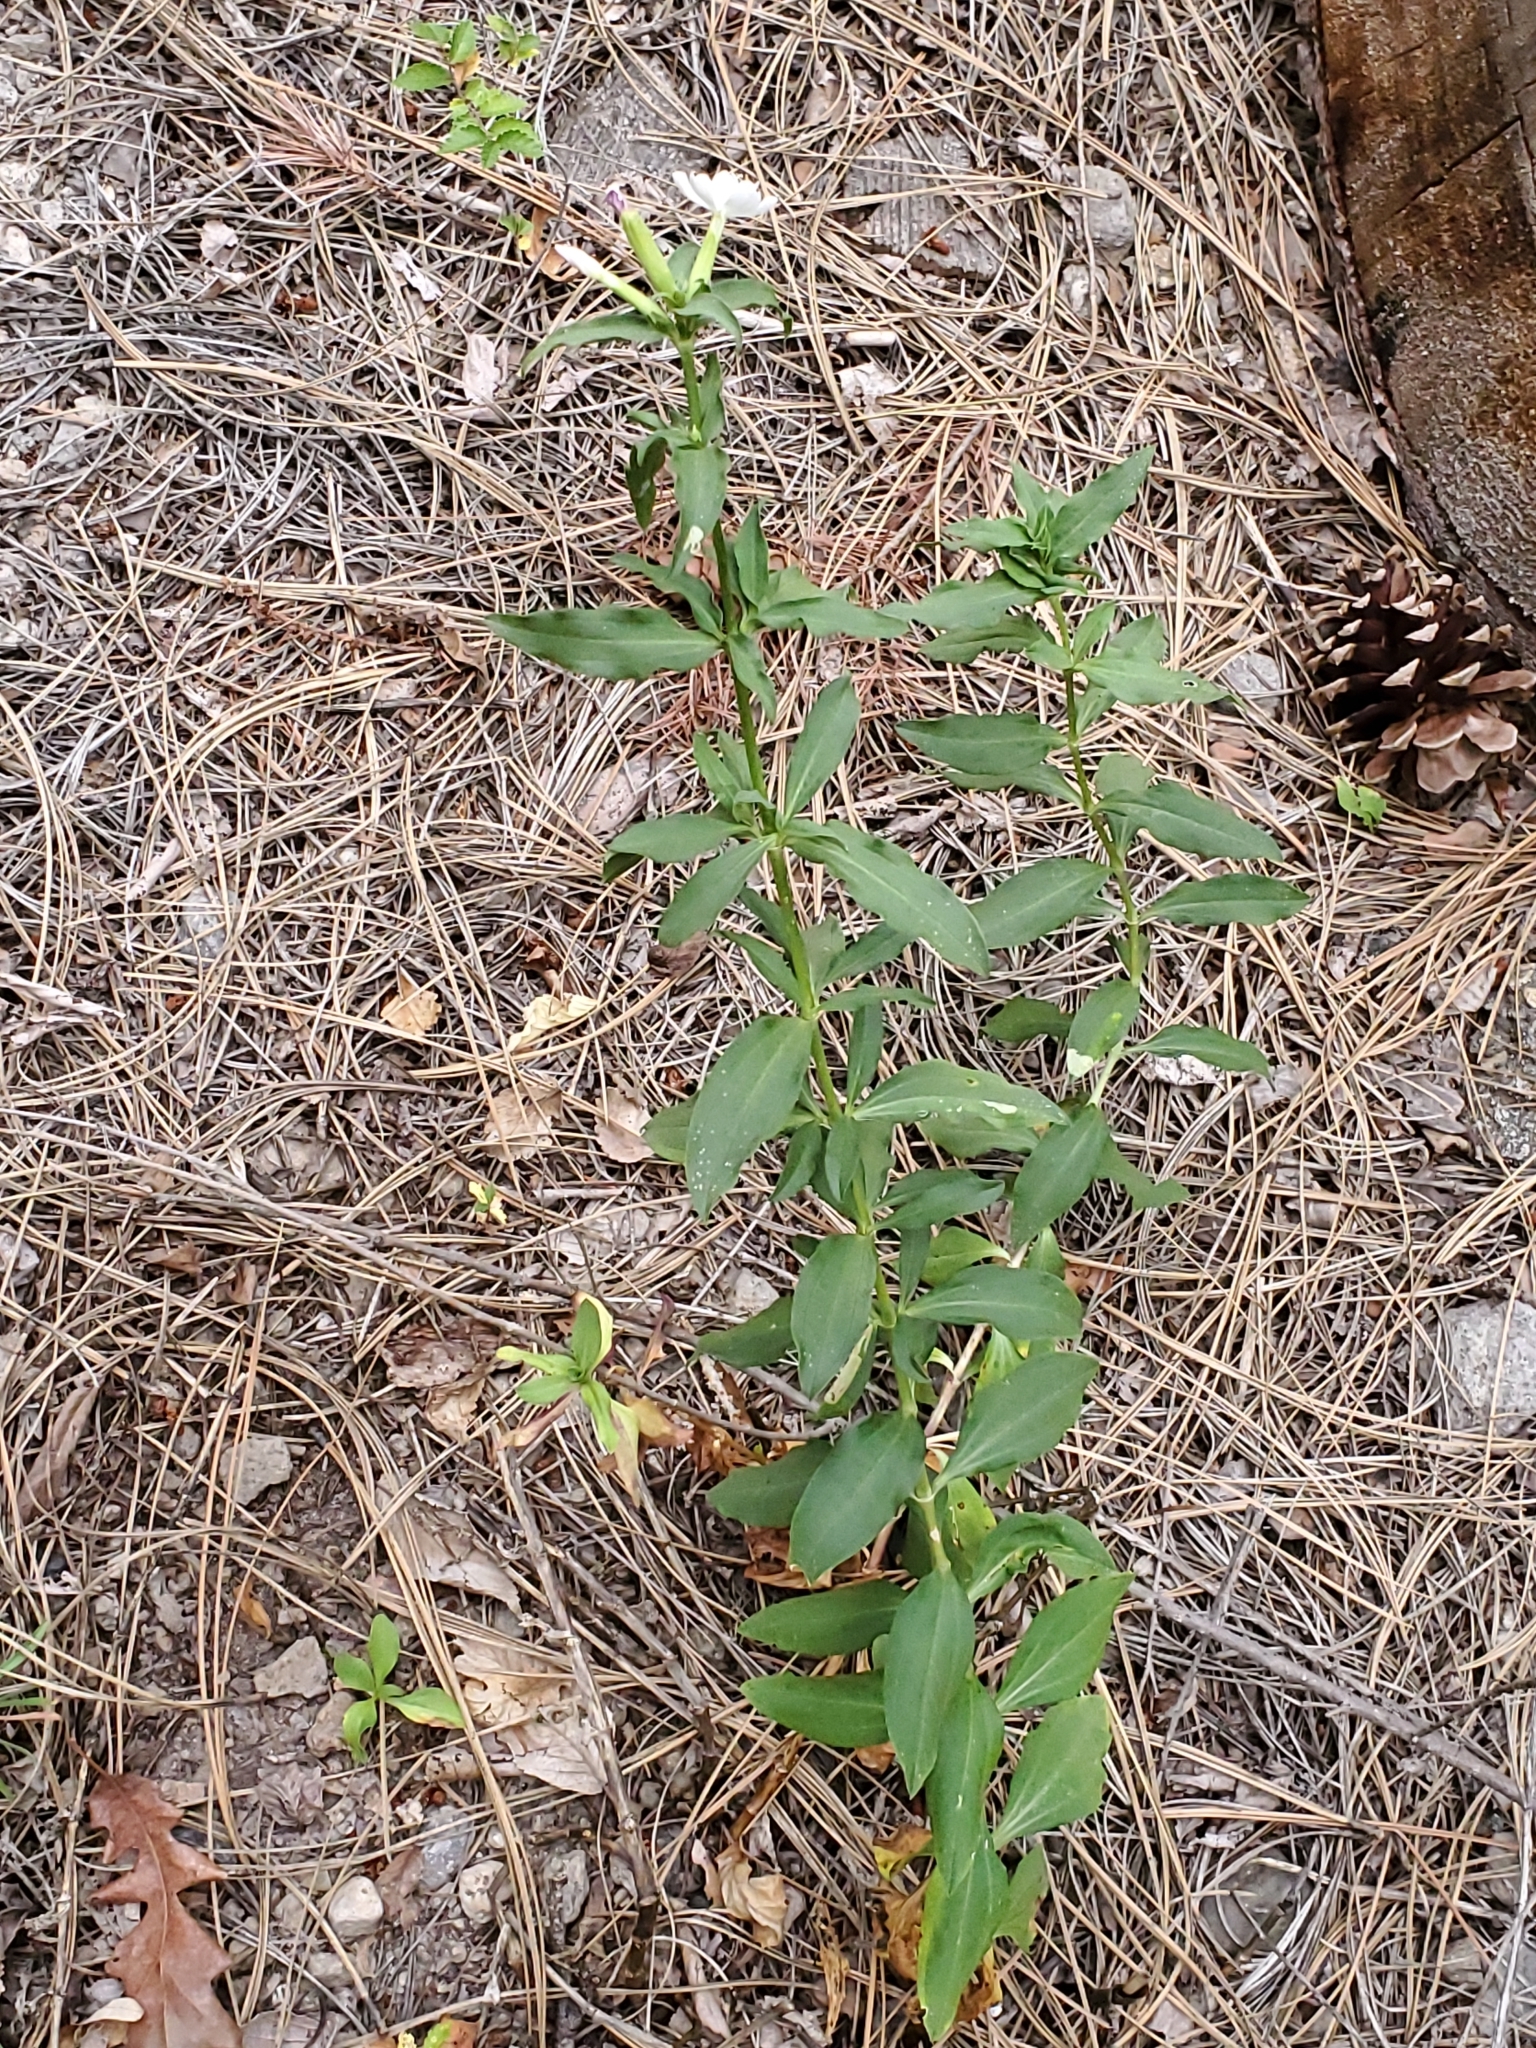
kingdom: Plantae
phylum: Tracheophyta
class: Magnoliopsida
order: Caryophyllales
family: Caryophyllaceae
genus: Saponaria
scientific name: Saponaria officinalis
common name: Soapwort
